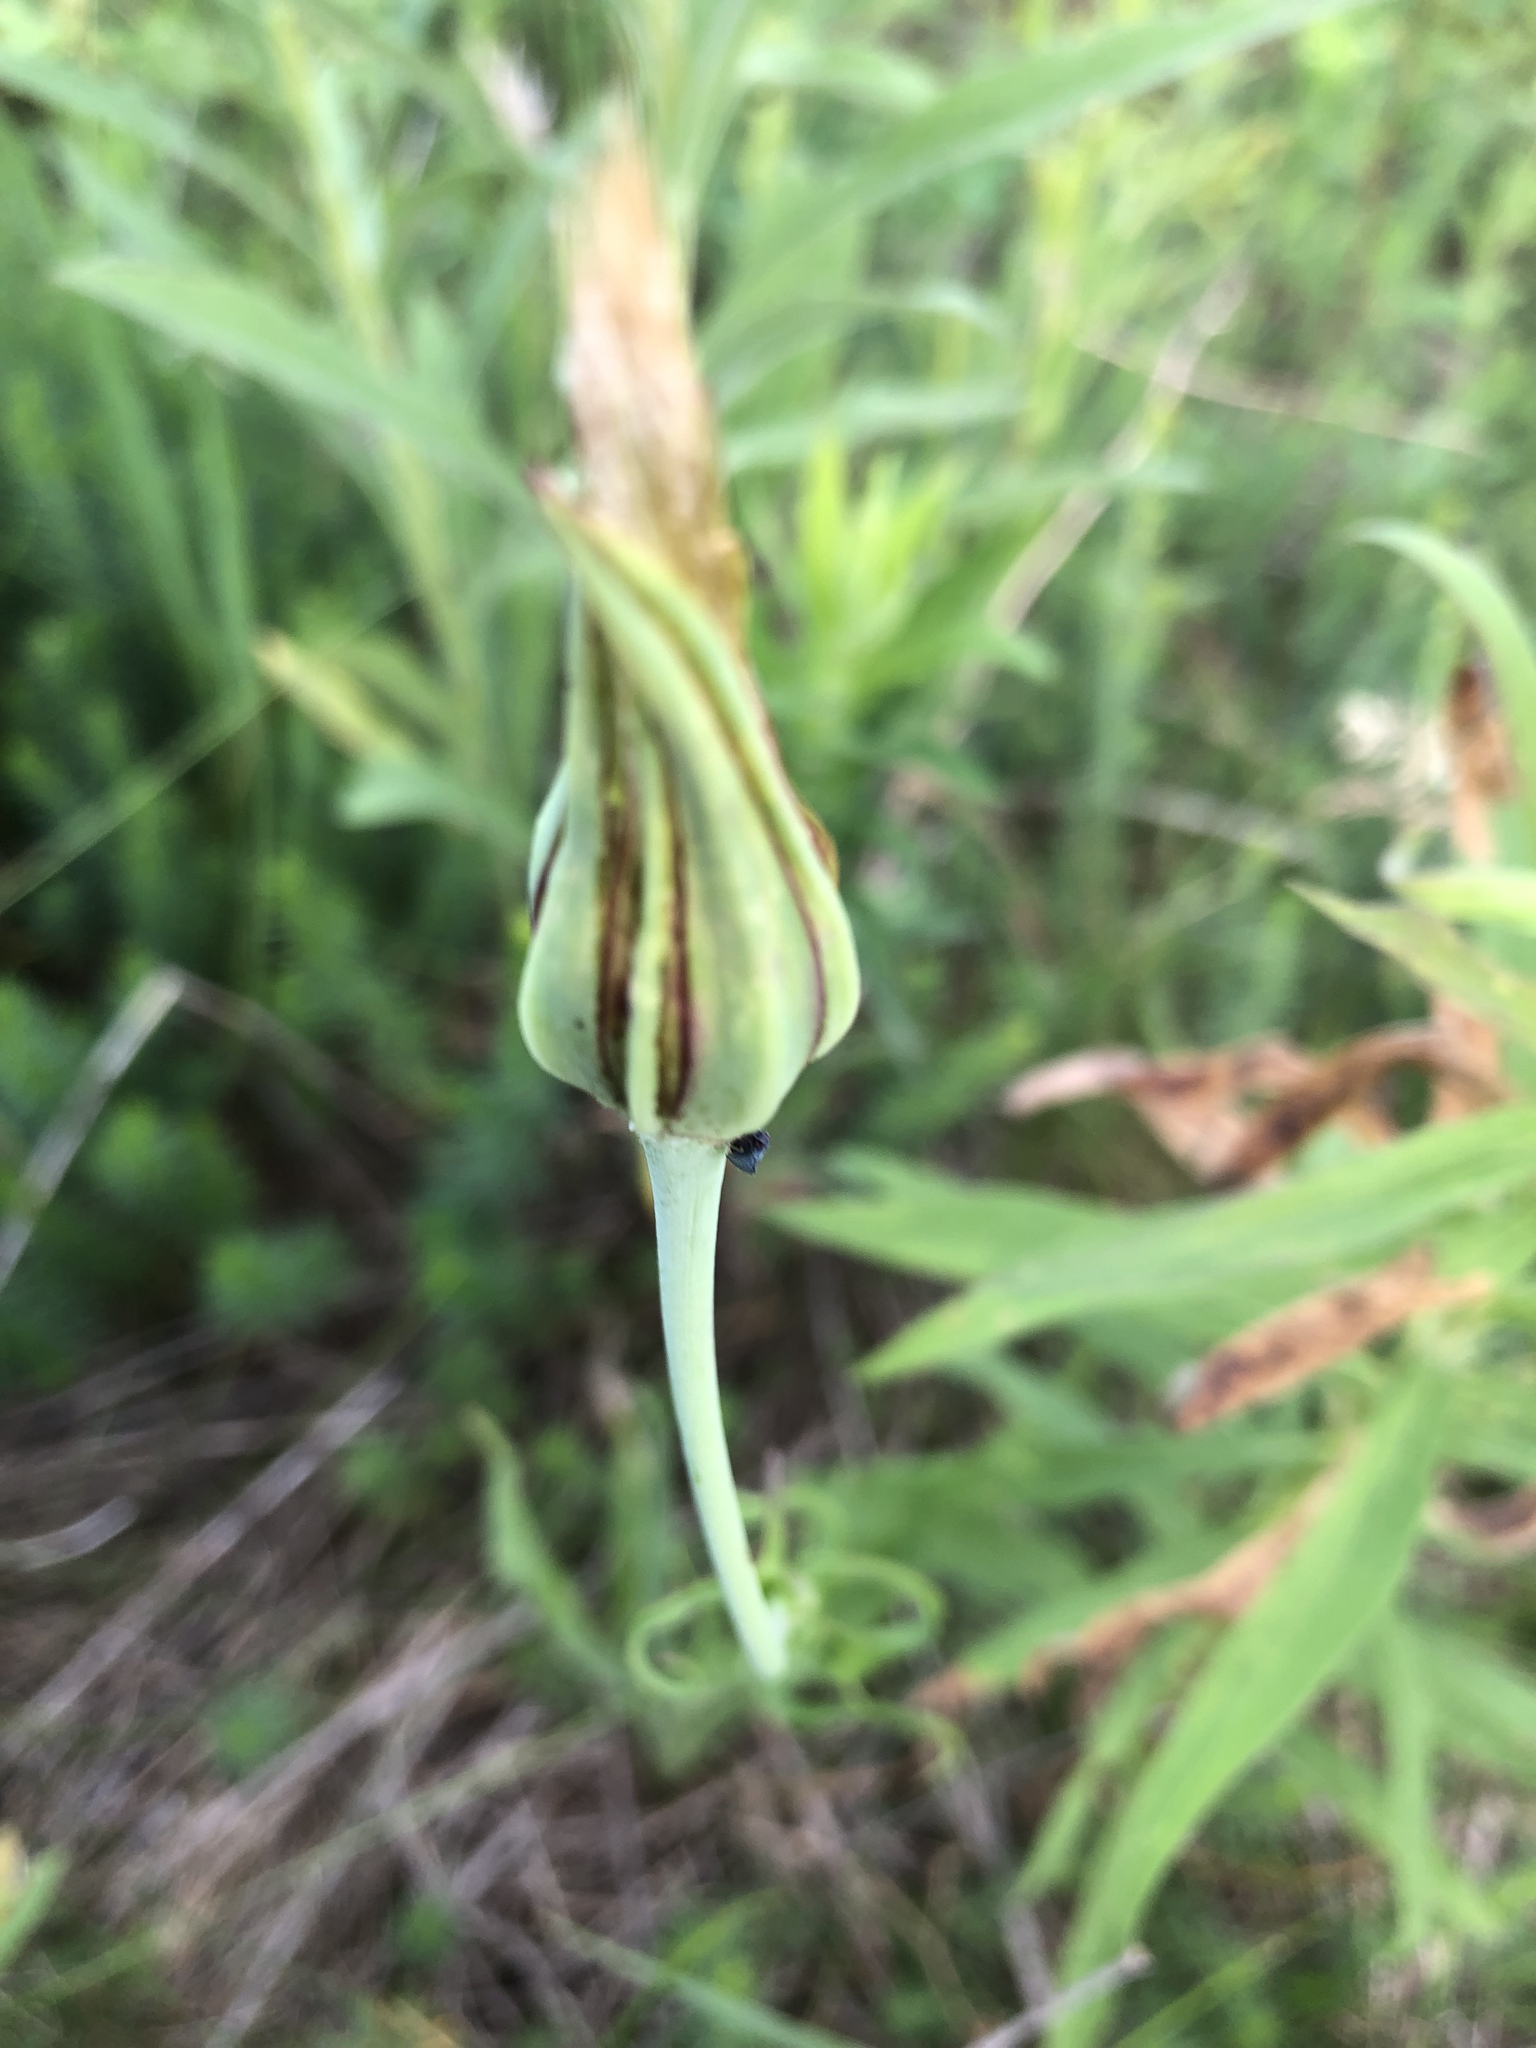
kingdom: Plantae
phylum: Tracheophyta
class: Magnoliopsida
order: Asterales
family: Asteraceae
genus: Tragopogon
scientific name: Tragopogon pratensis
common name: Goat's-beard
